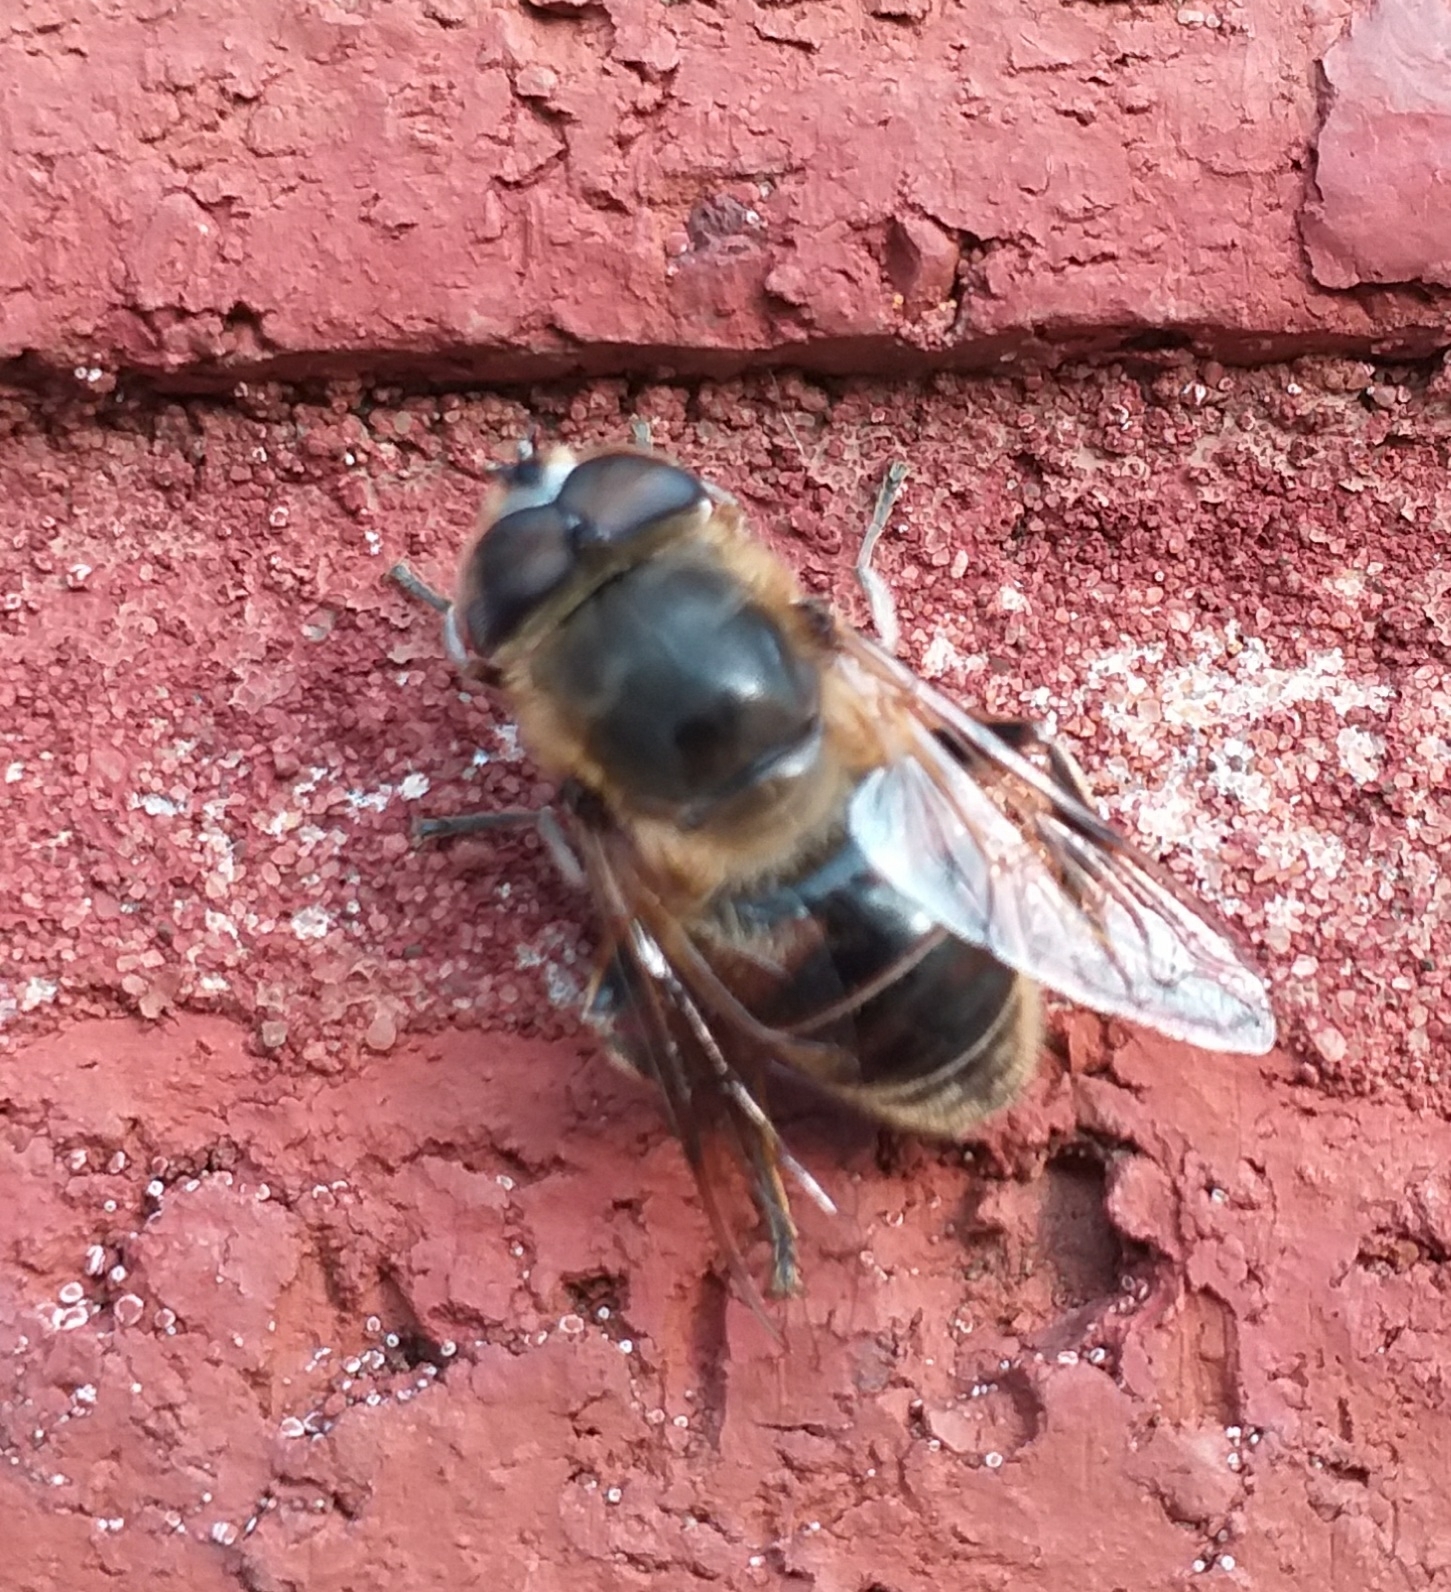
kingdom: Animalia
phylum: Arthropoda
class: Insecta
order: Diptera
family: Syrphidae
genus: Eristalis
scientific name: Eristalis tenax
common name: Drone fly
